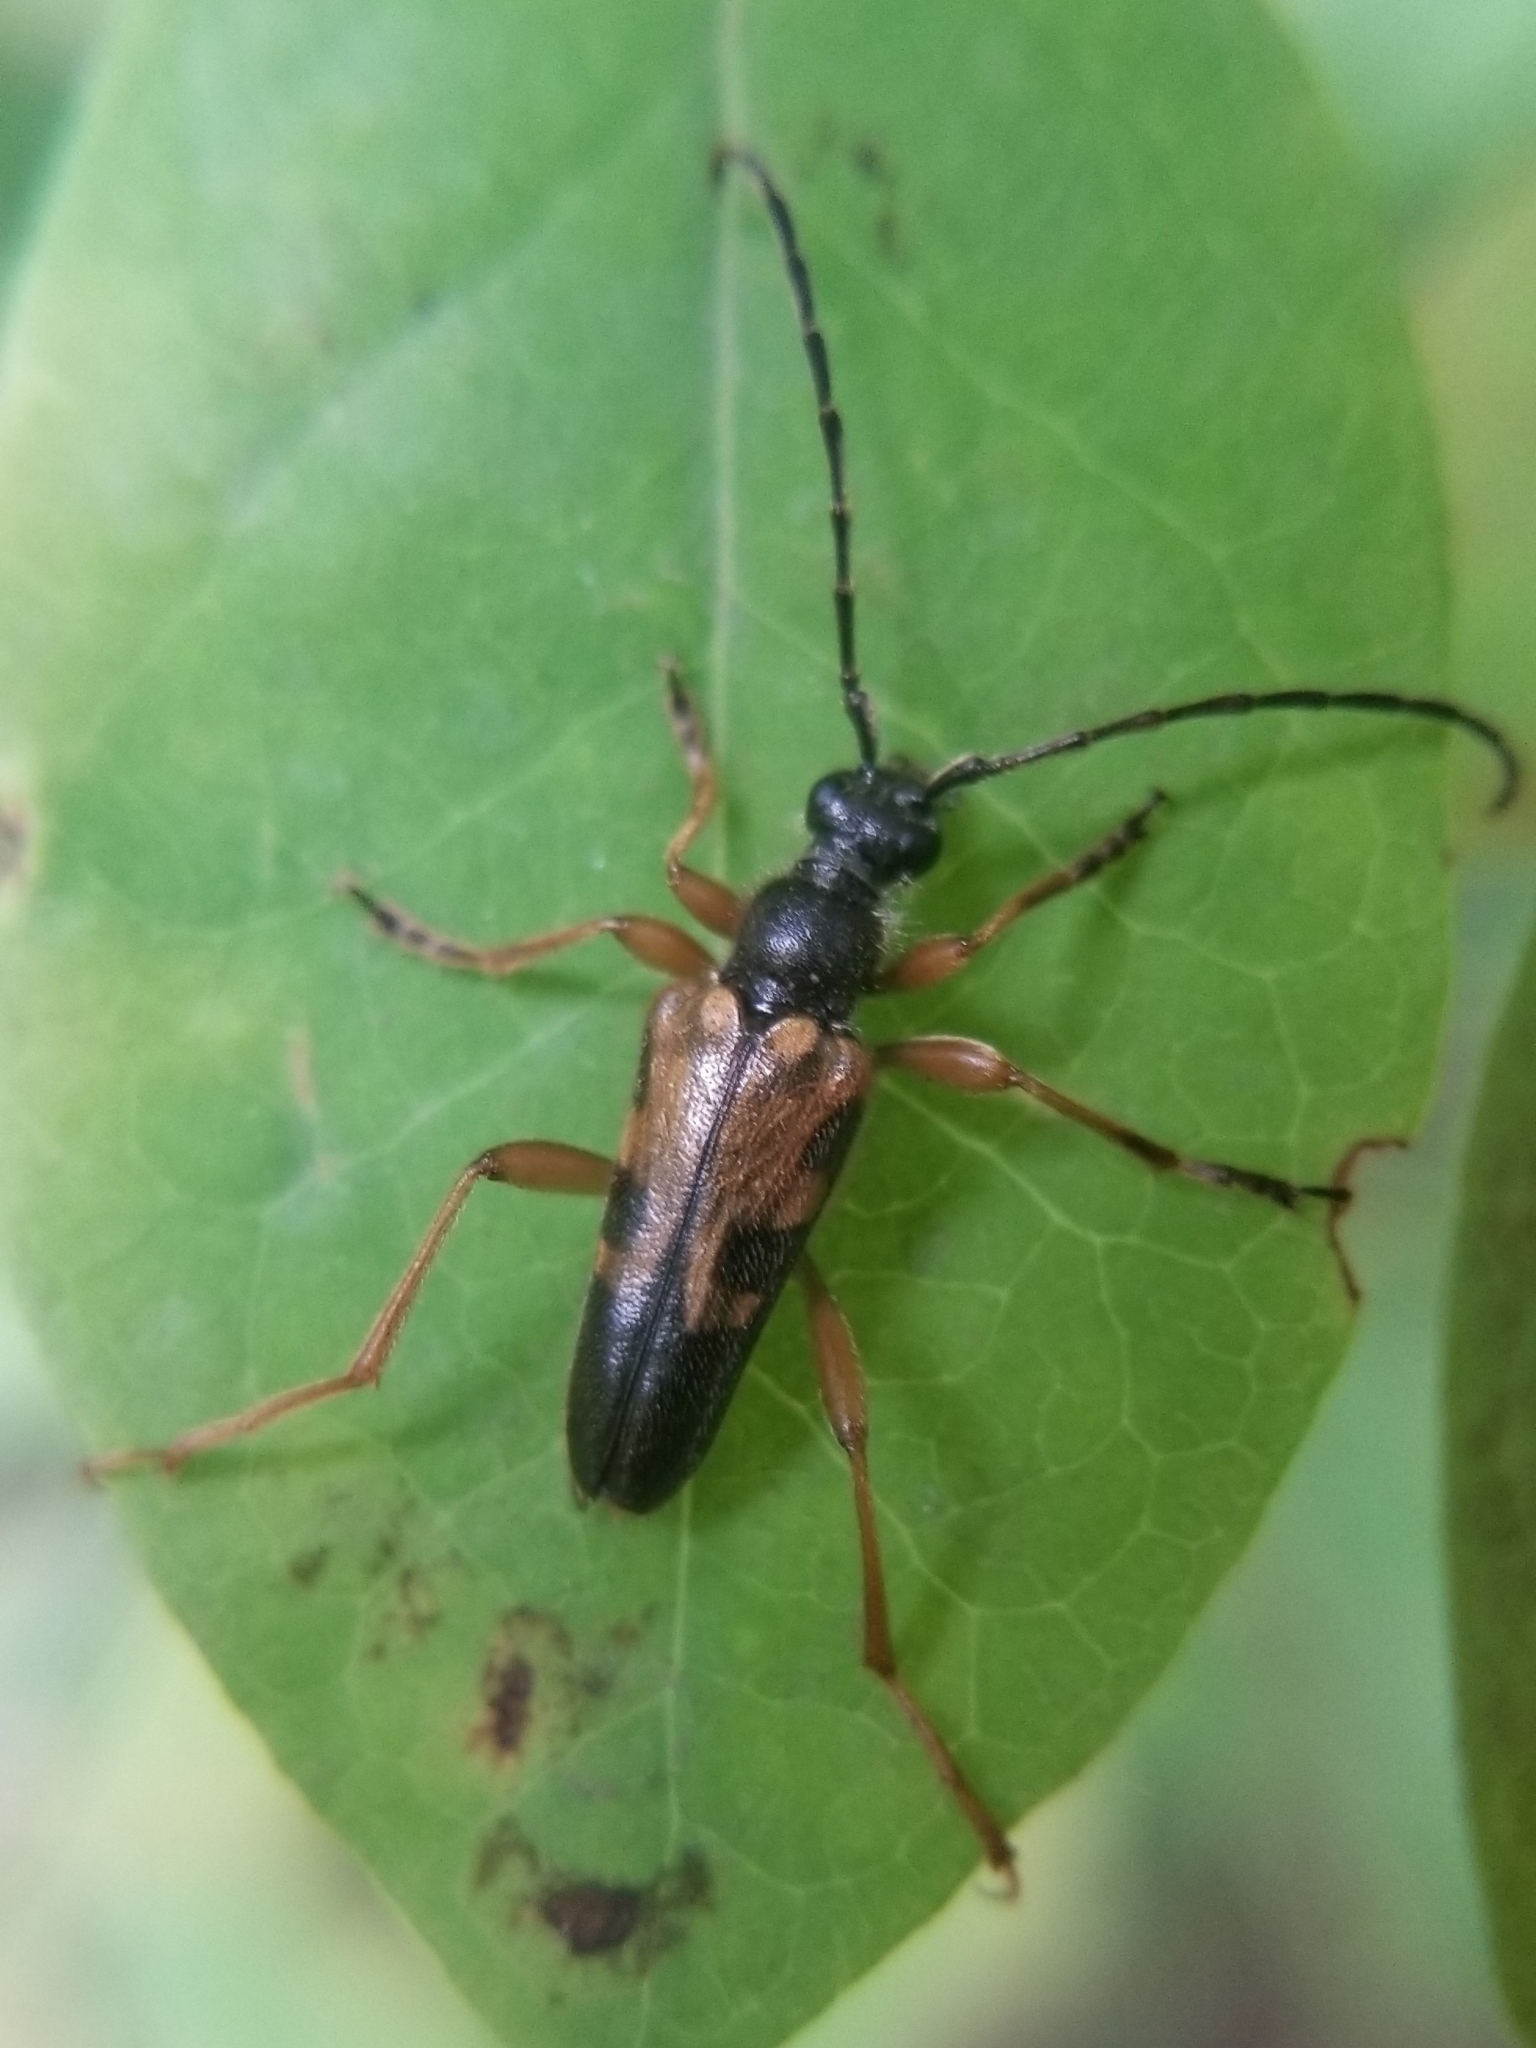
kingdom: Animalia
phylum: Arthropoda
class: Insecta
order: Coleoptera
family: Cerambycidae
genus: Xestoleptura
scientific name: Xestoleptura crassipes
